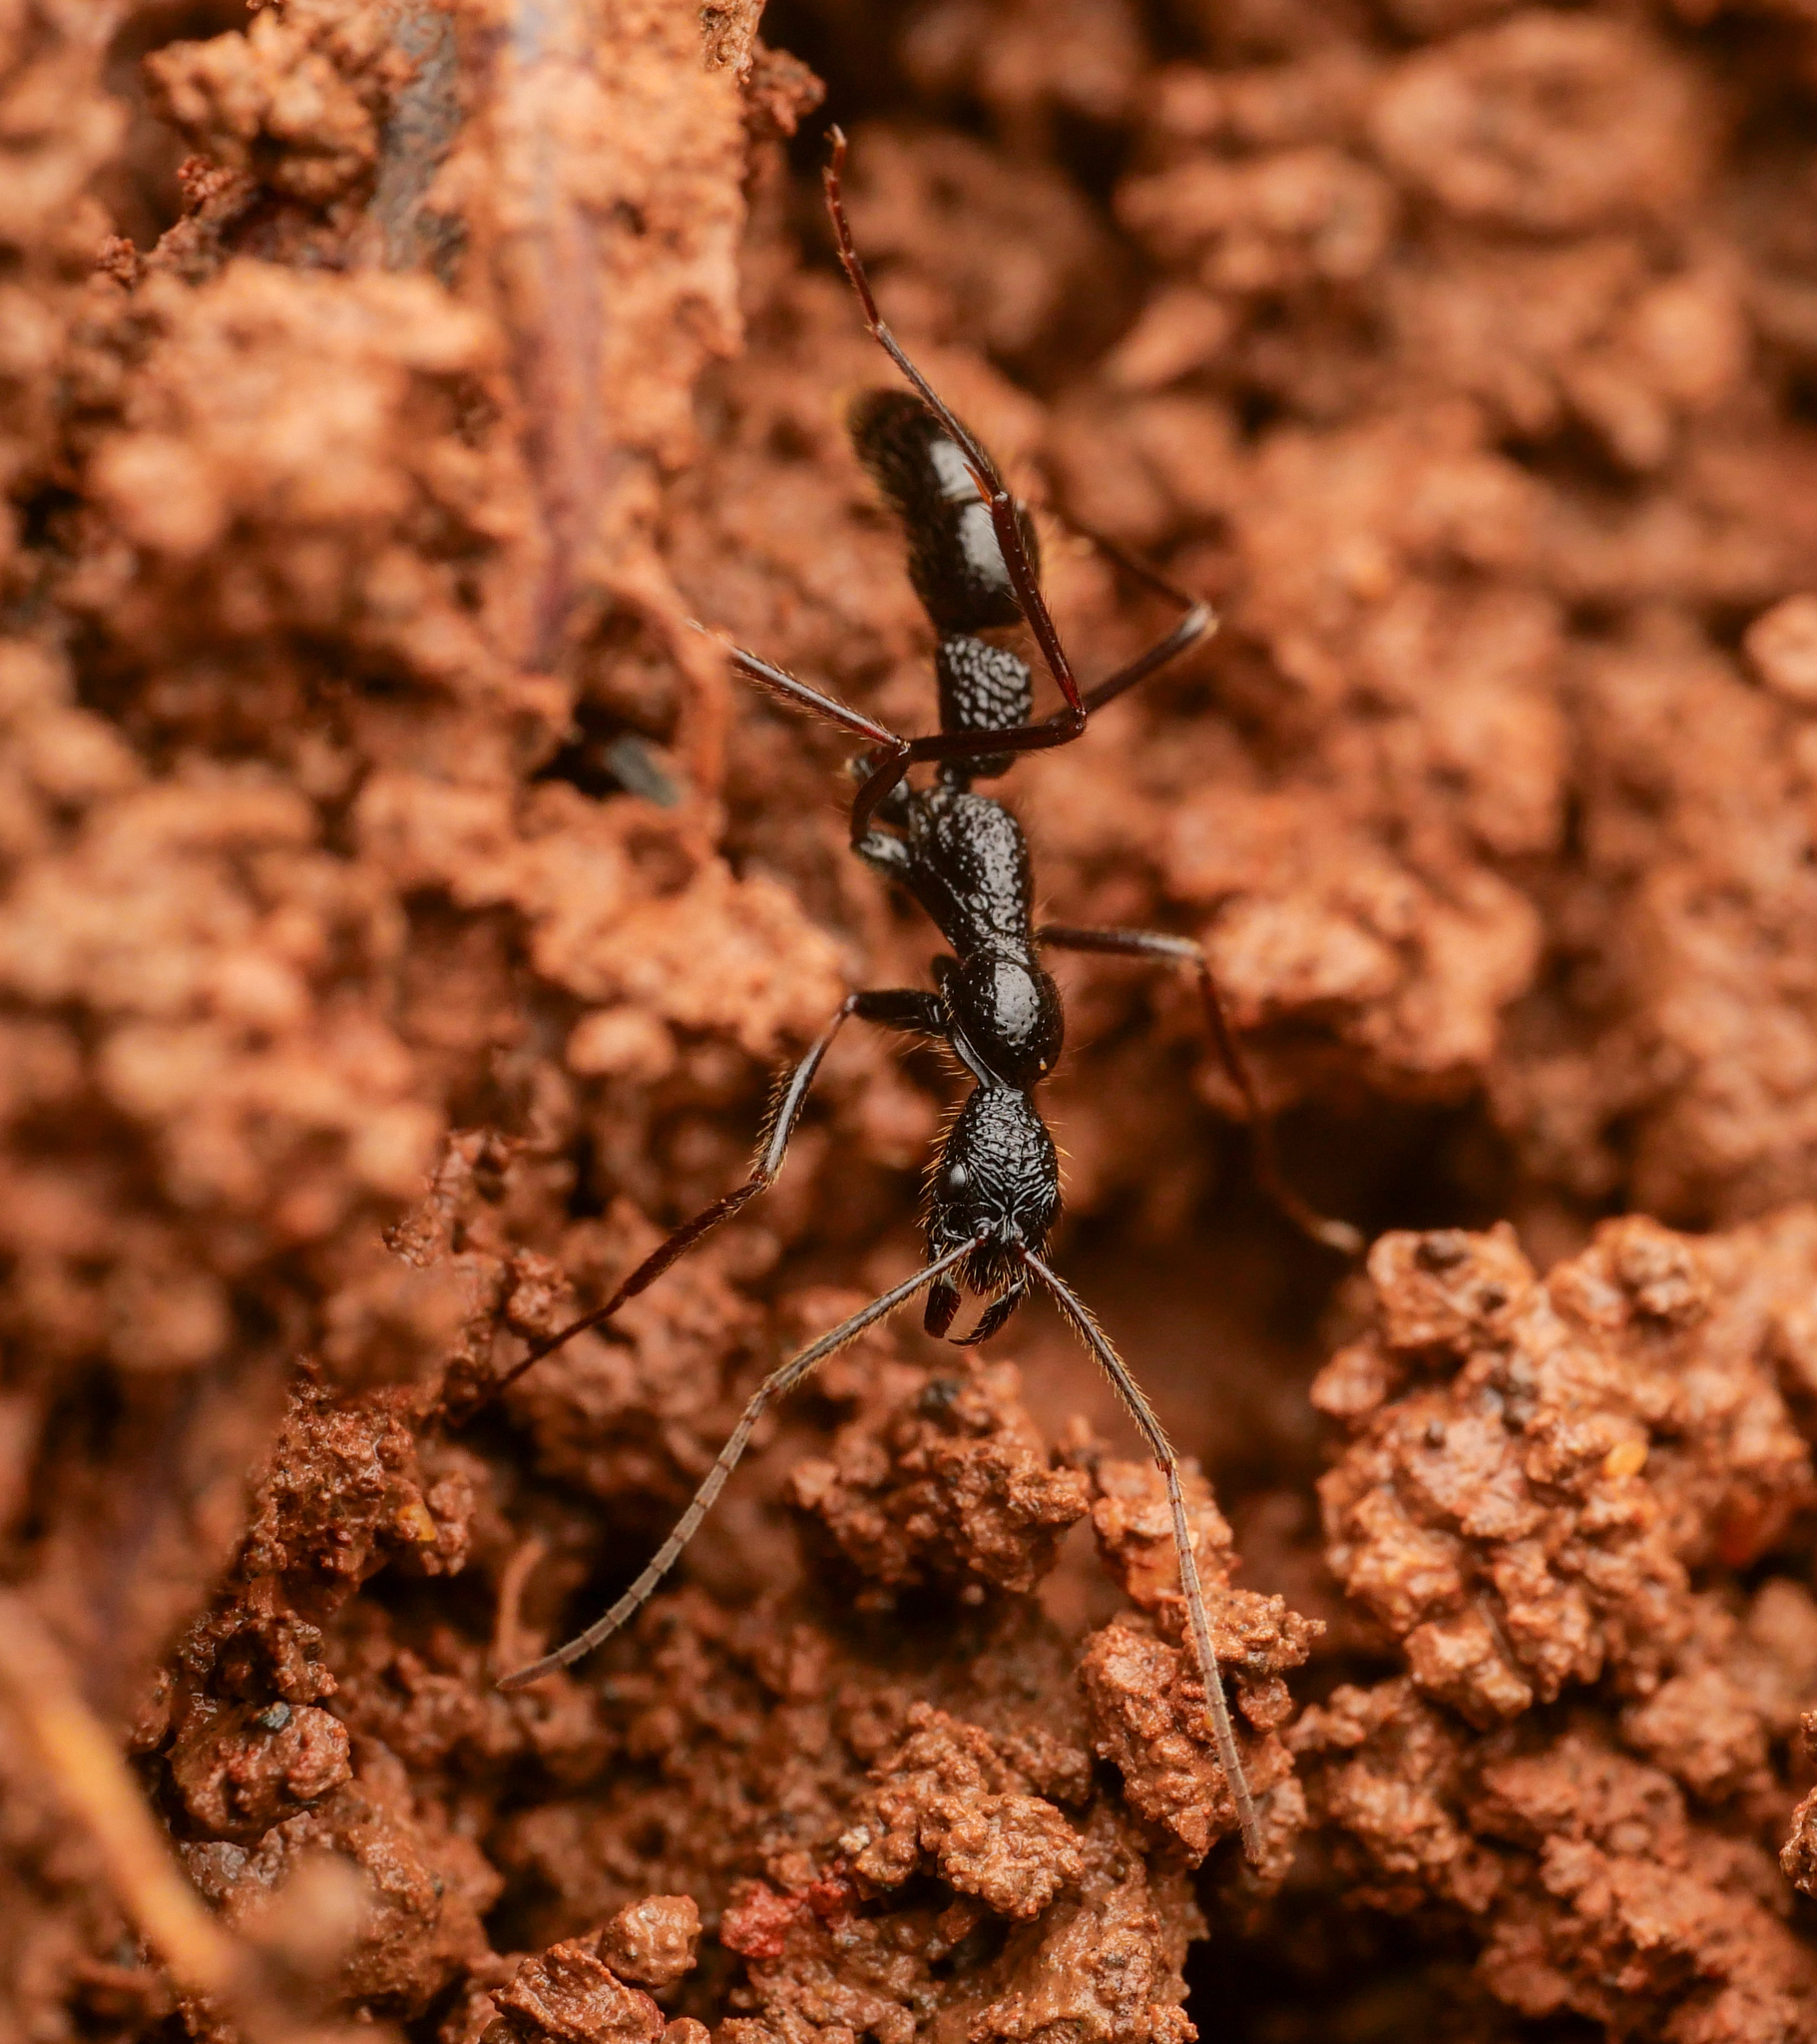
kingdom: Animalia
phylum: Arthropoda
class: Insecta
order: Hymenoptera
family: Formicidae
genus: Leptogenys
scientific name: Leptogenys optica
